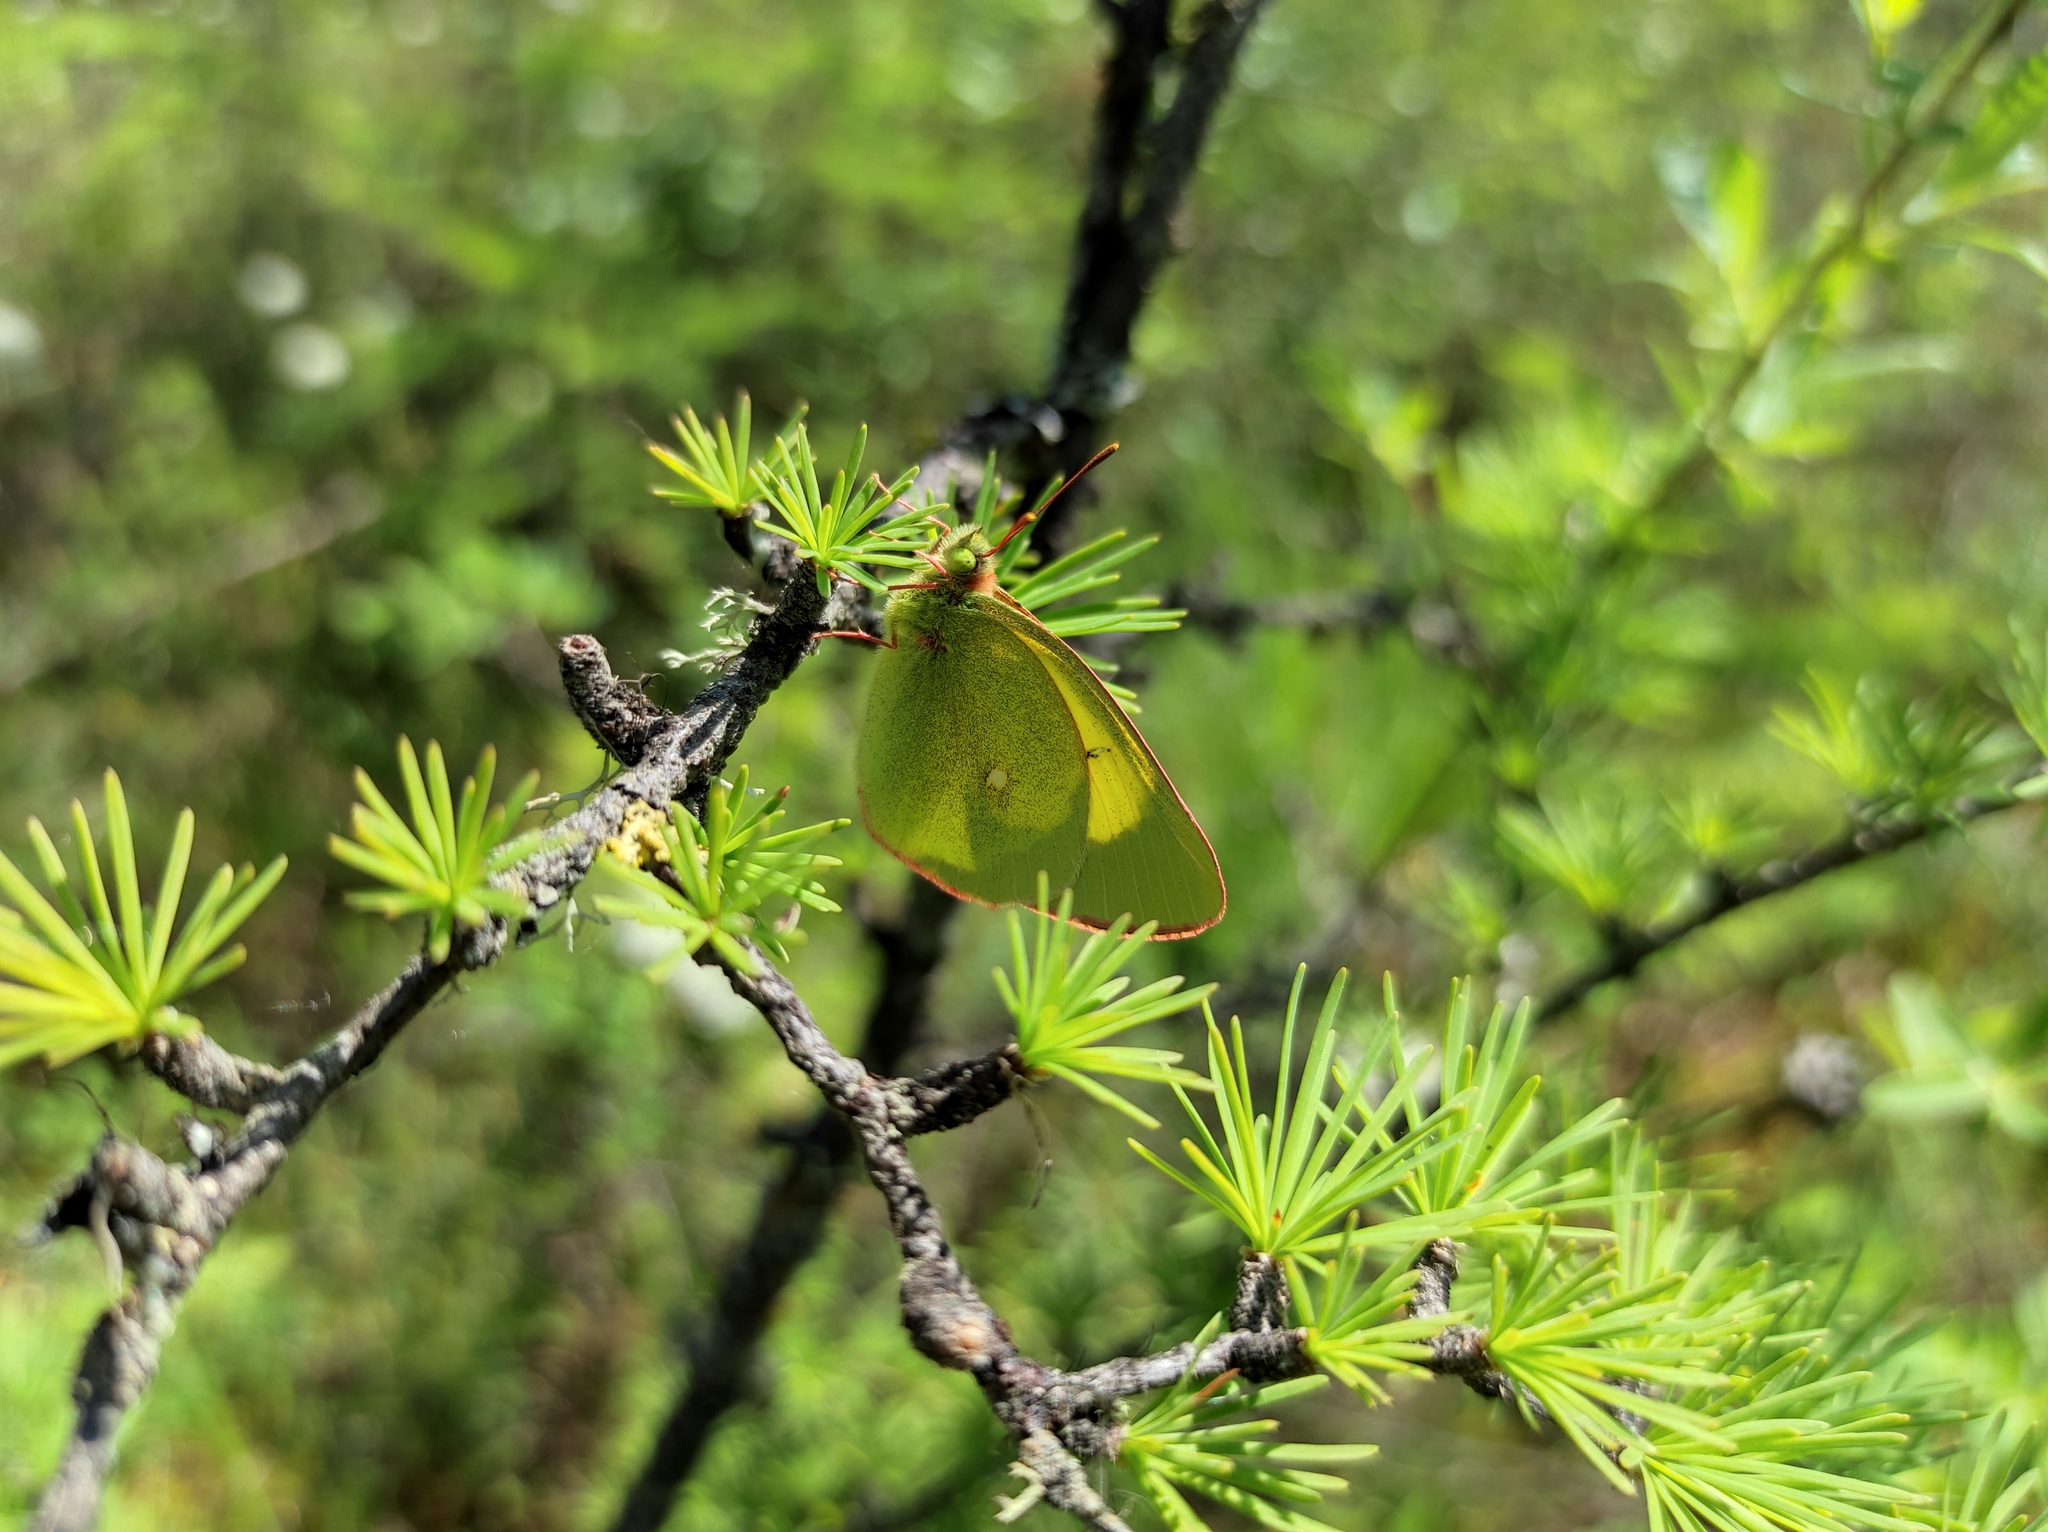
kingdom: Plantae
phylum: Tracheophyta
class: Pinopsida
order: Pinales
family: Pinaceae
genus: Larix
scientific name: Larix gmelinii
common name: Dahurian larch
